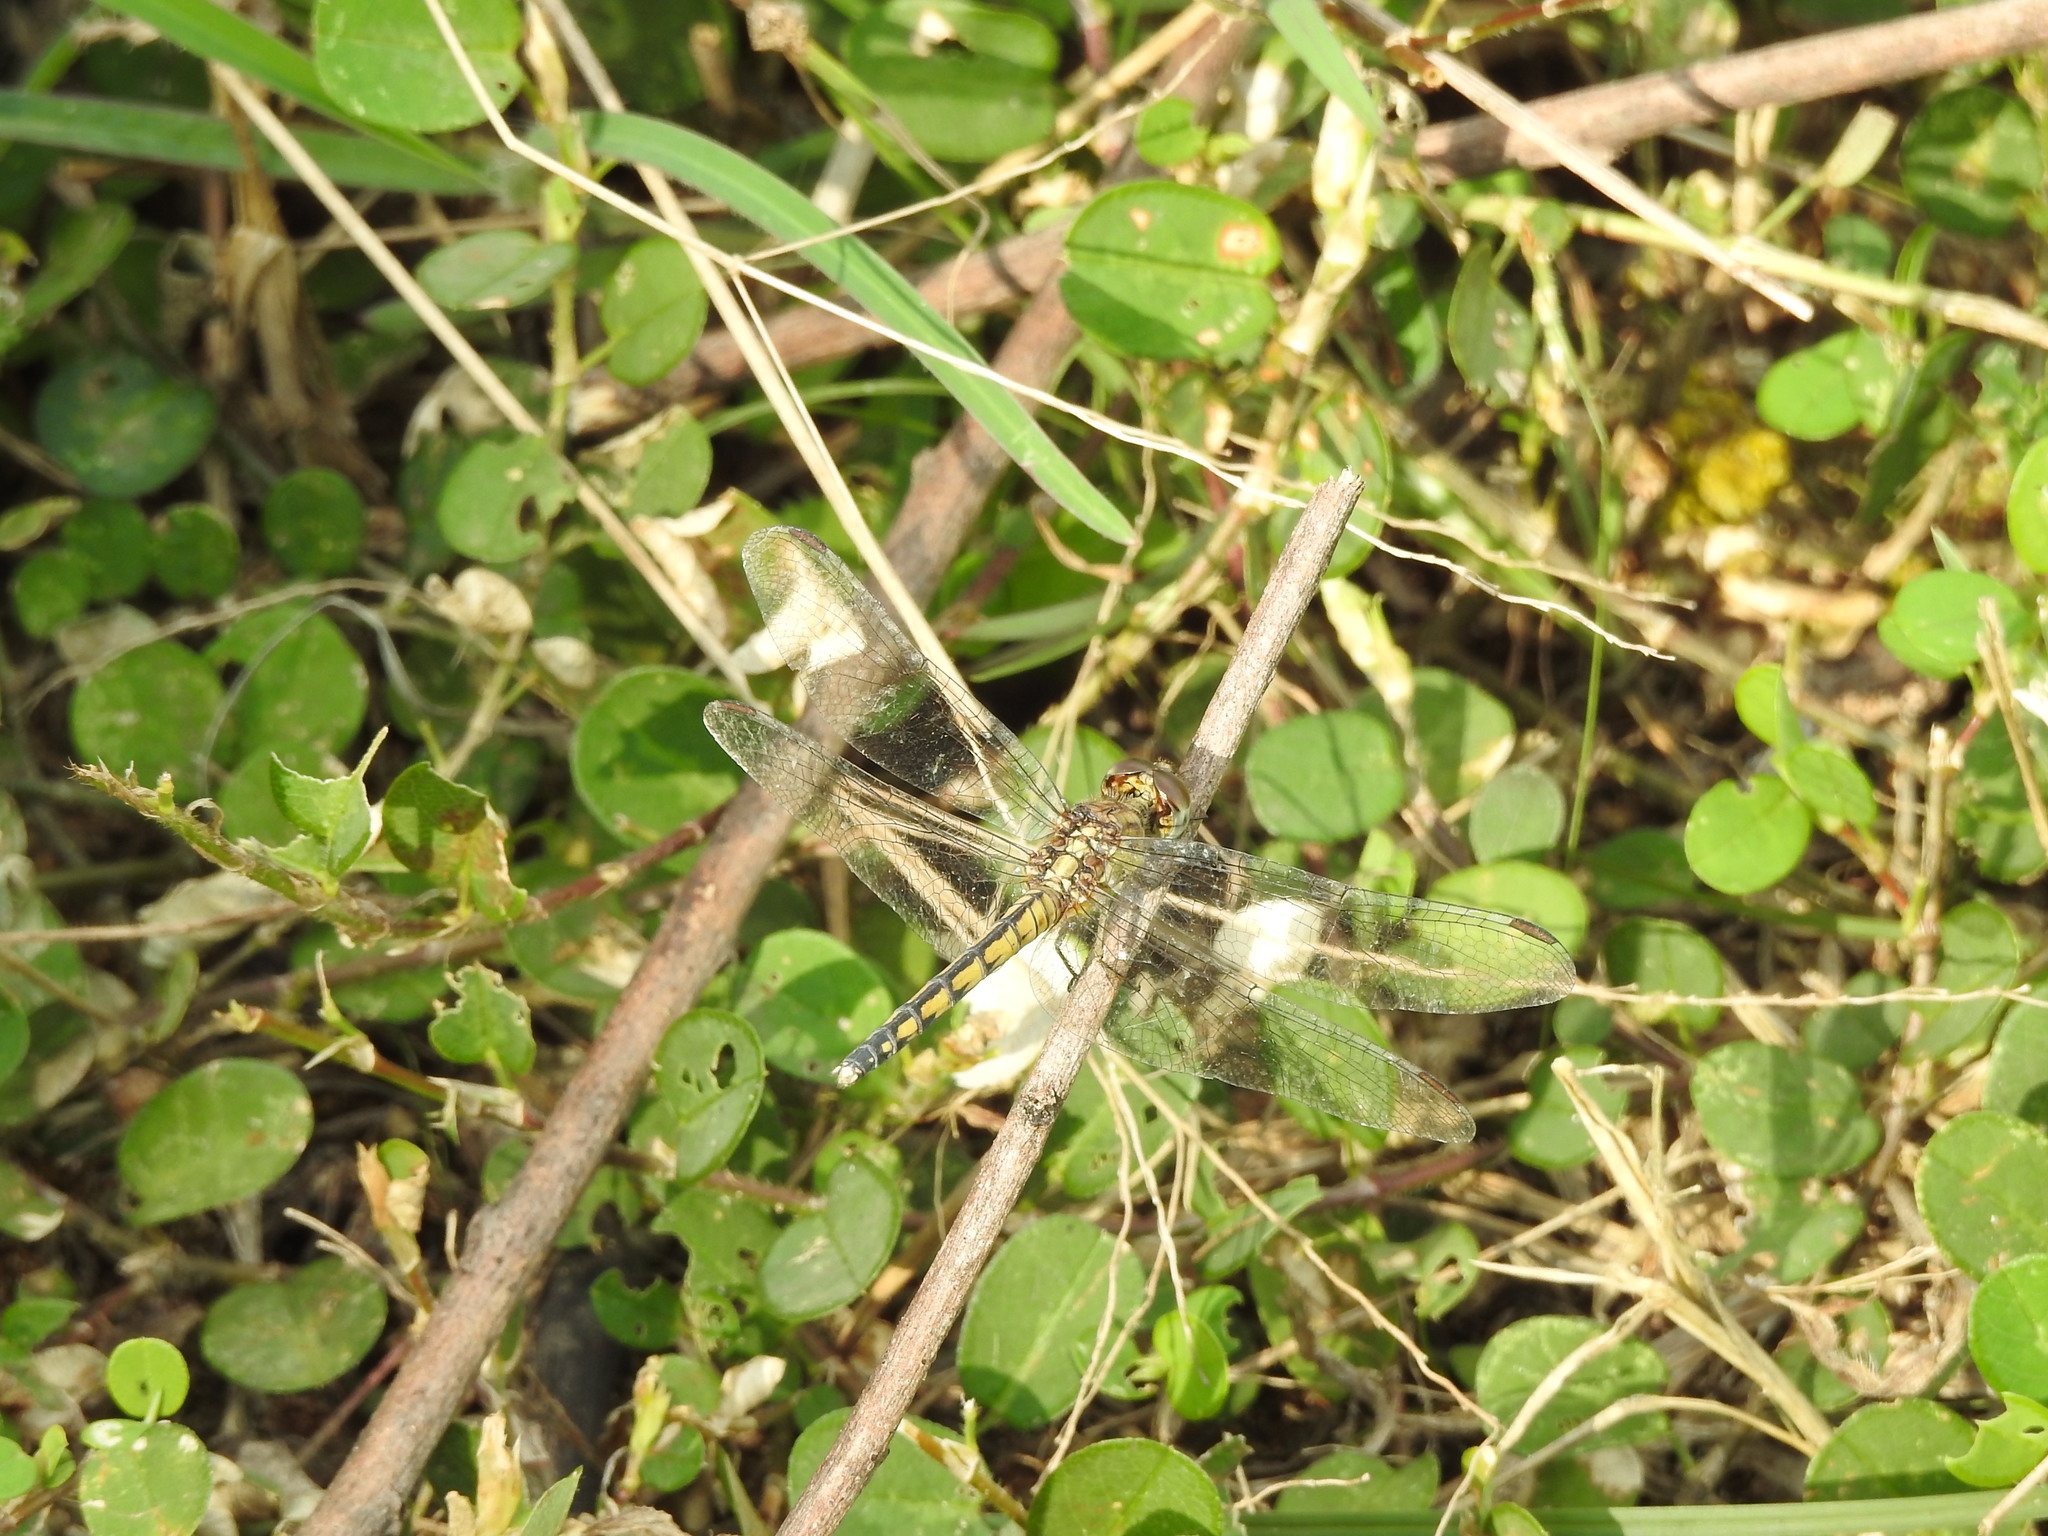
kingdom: Animalia
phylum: Arthropoda
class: Insecta
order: Odonata
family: Libellulidae
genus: Indothemis
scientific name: Indothemis carnatica
